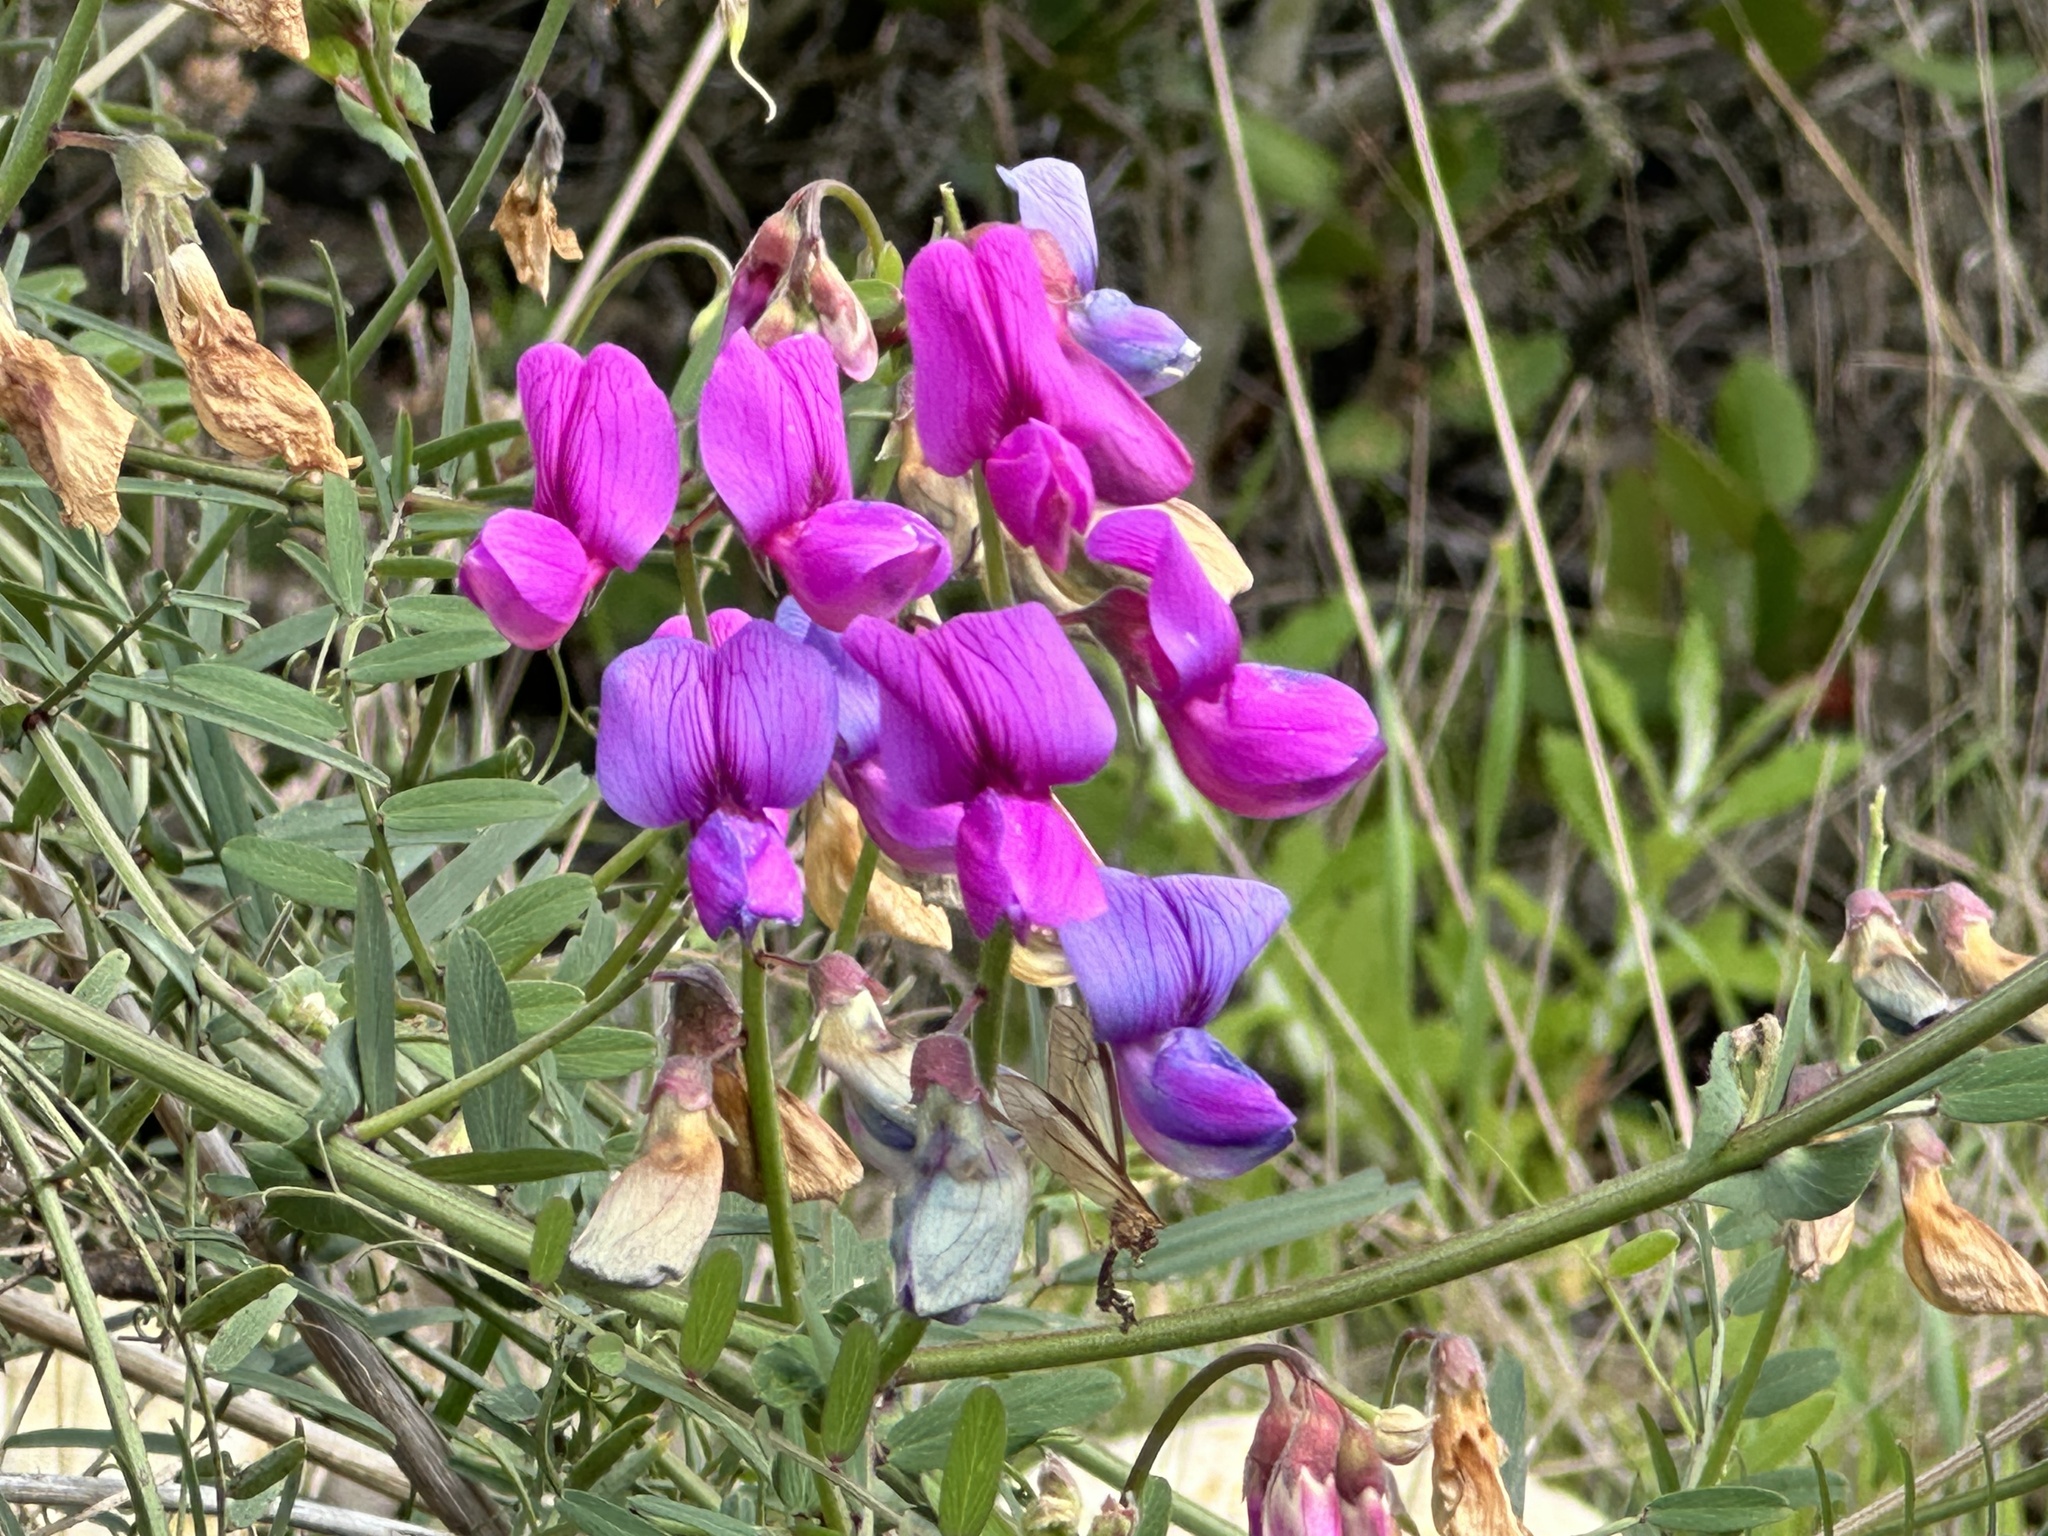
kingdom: Plantae
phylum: Tracheophyta
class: Magnoliopsida
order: Fabales
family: Fabaceae
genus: Lathyrus
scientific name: Lathyrus vestitus
